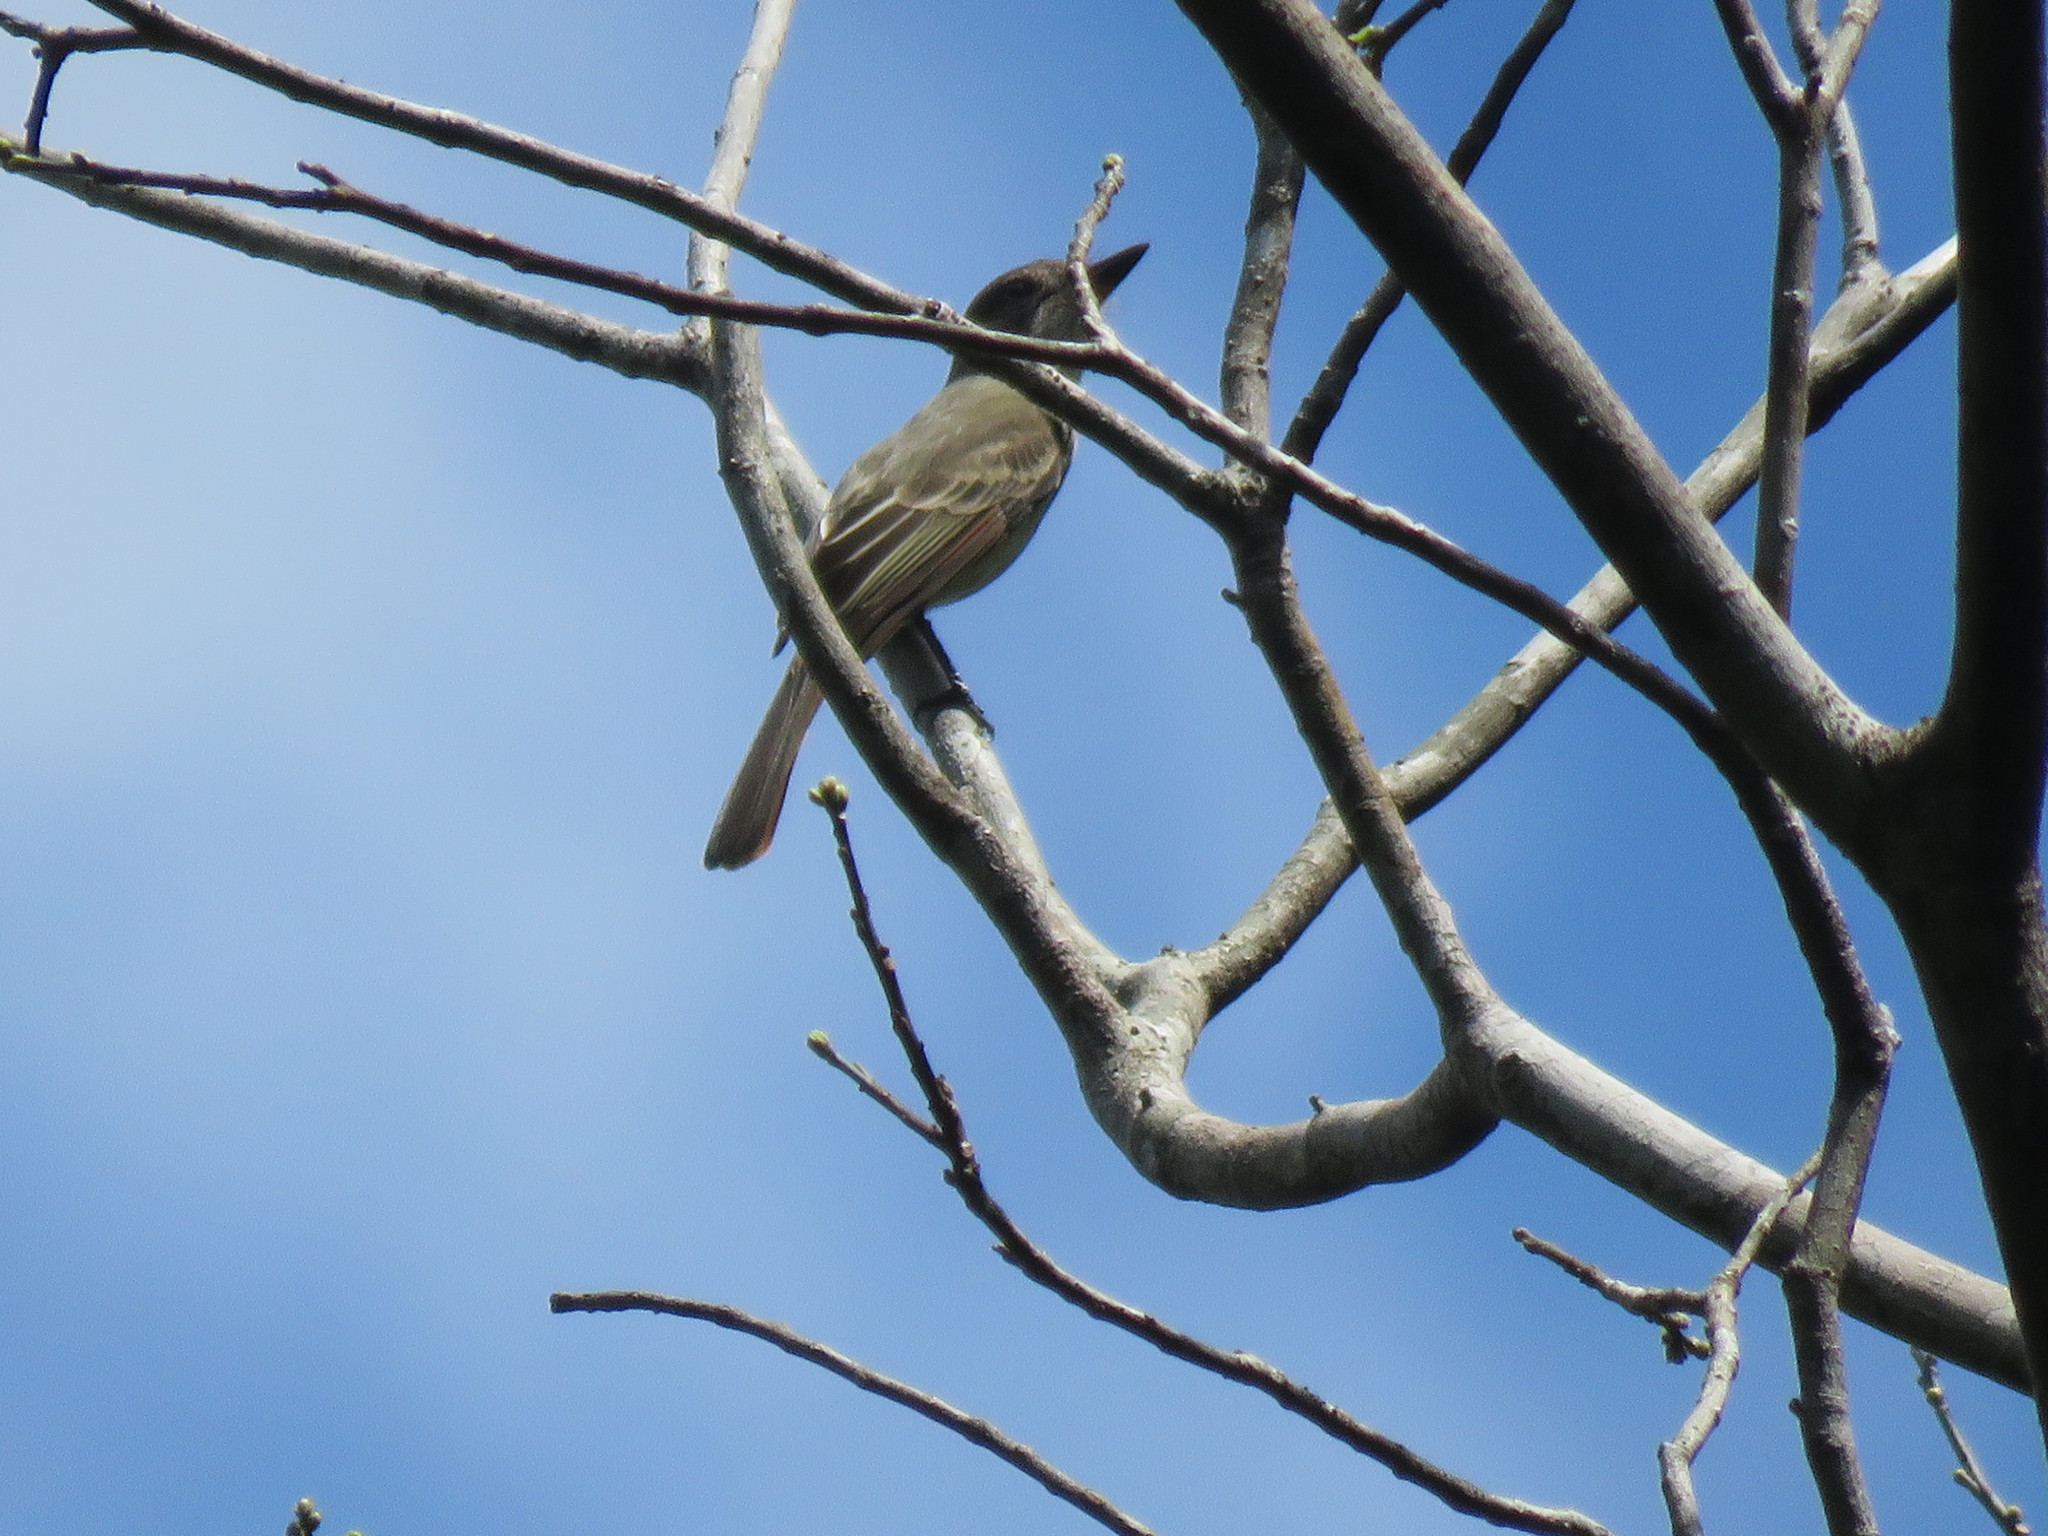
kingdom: Animalia
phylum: Chordata
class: Aves
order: Passeriformes
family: Tyrannidae
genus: Myiarchus
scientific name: Myiarchus tyrannulus
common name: Brown-crested flycatcher
